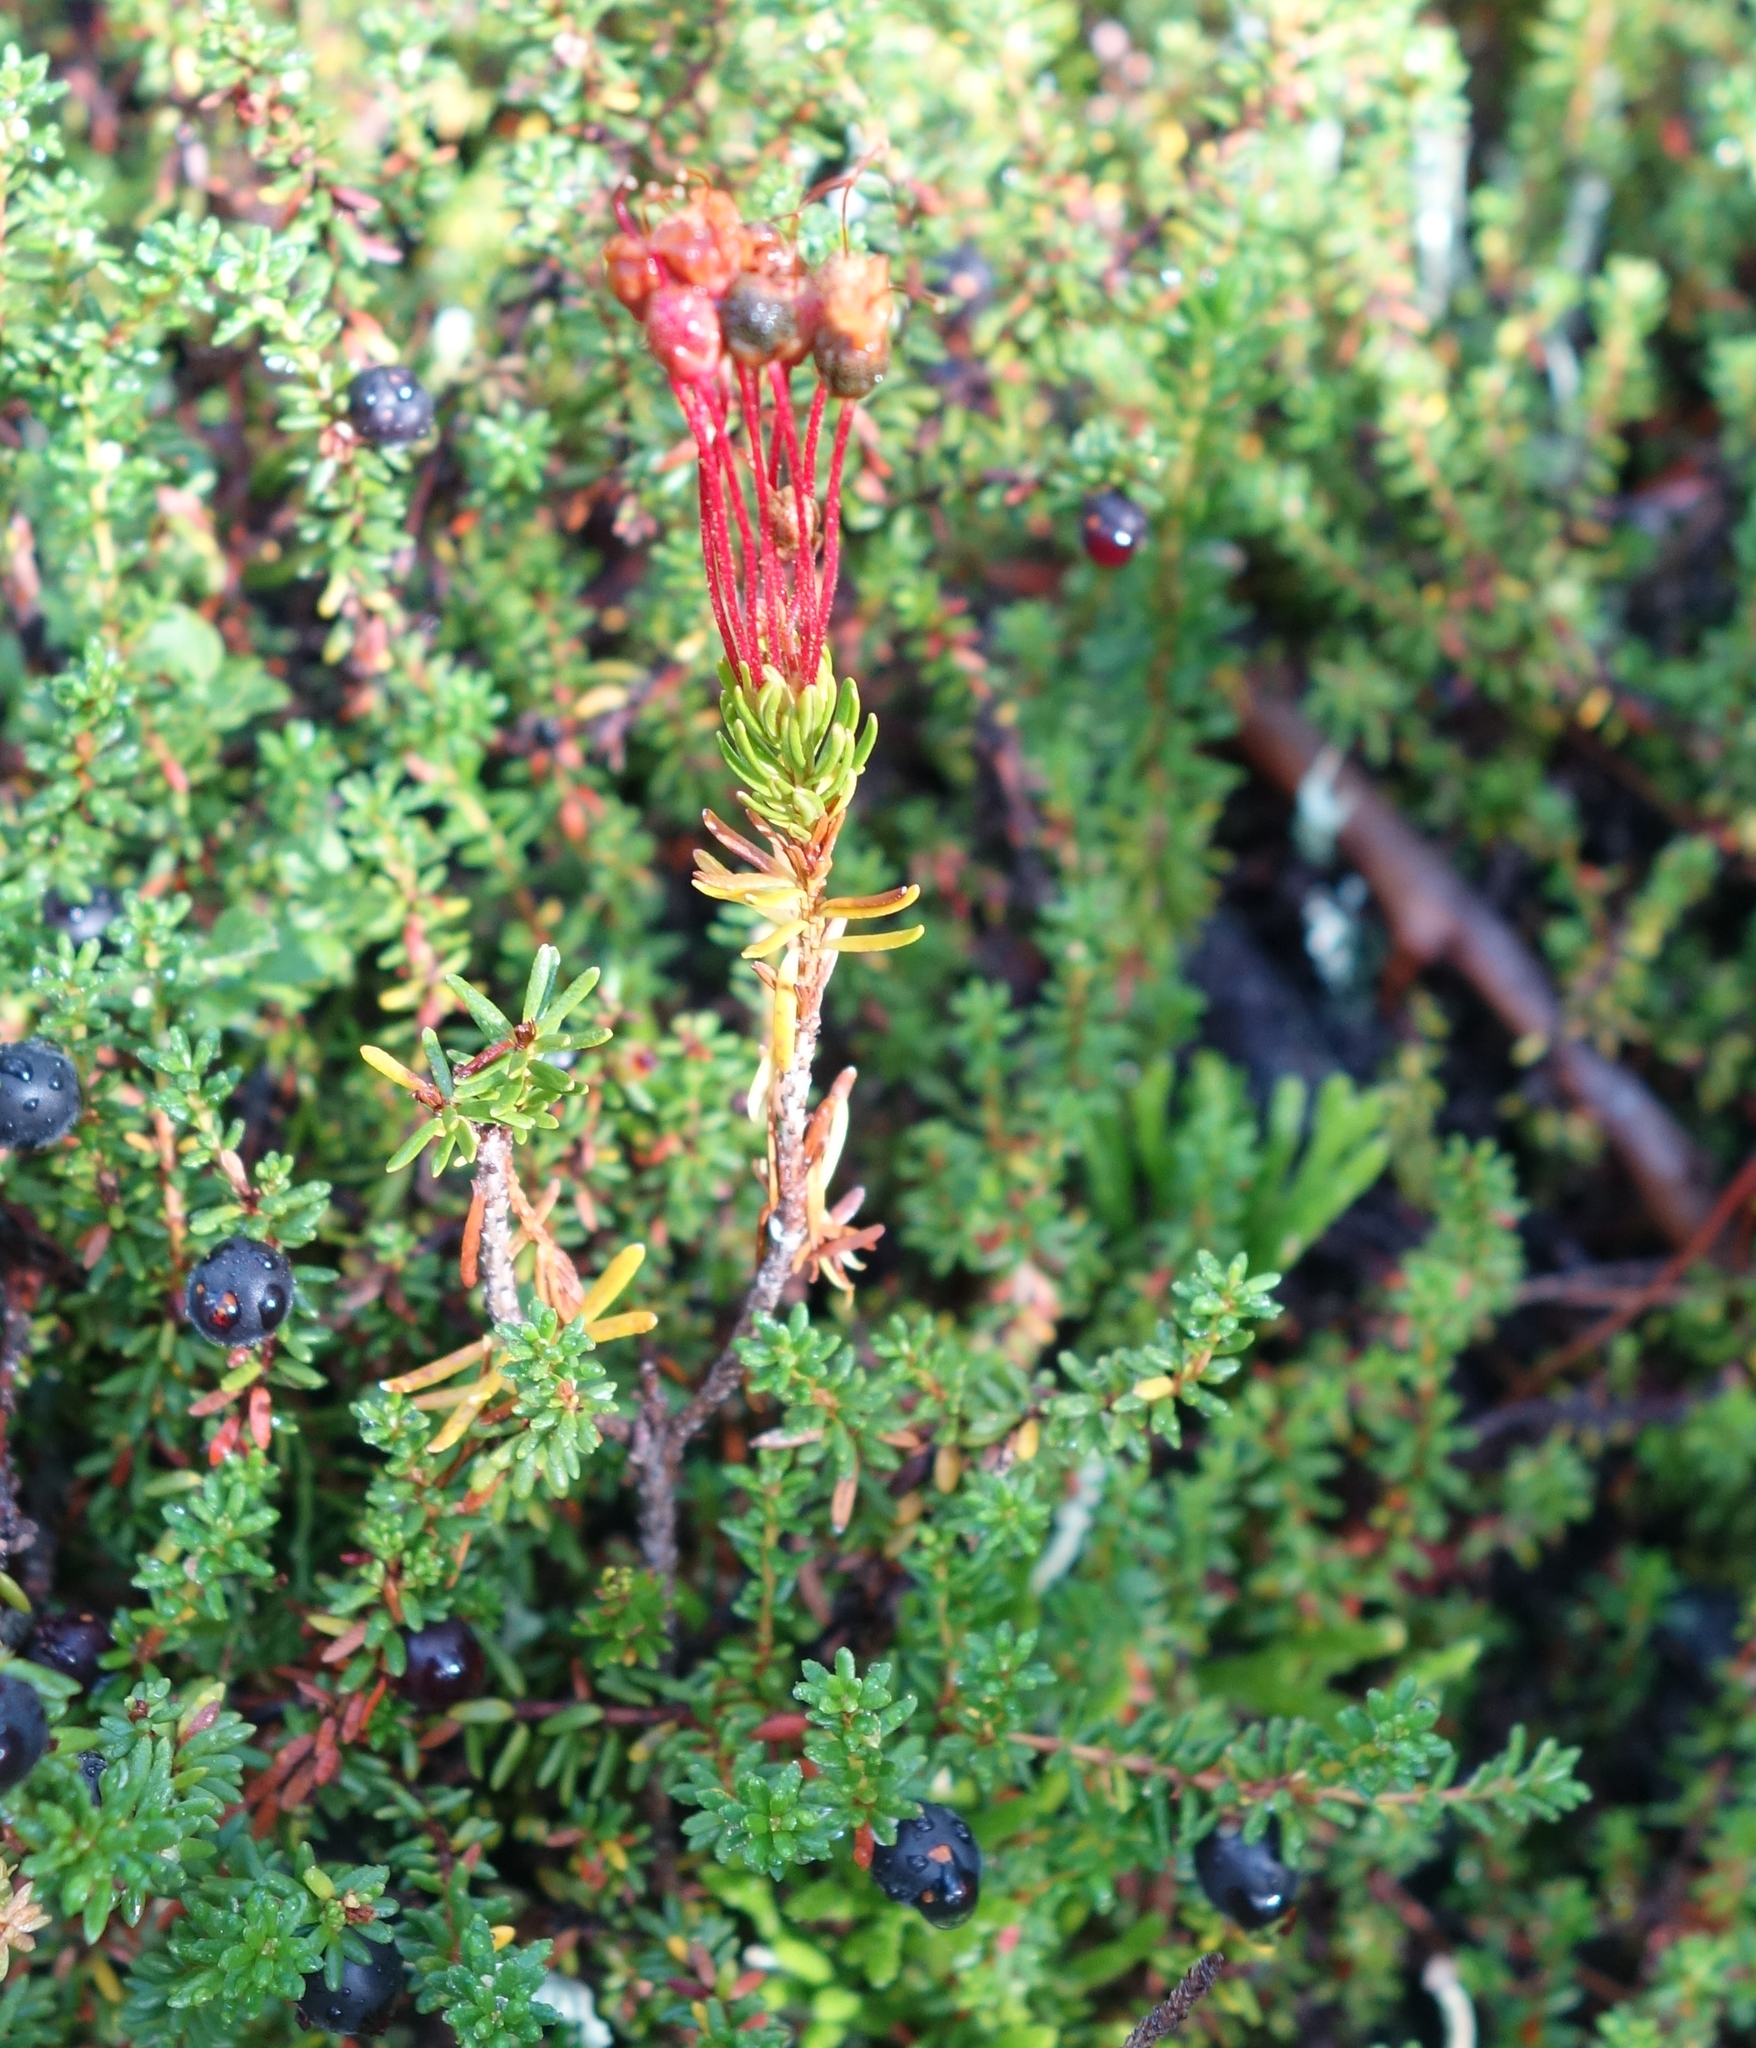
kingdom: Plantae
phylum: Tracheophyta
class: Magnoliopsida
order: Ericales
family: Ericaceae
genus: Phyllodoce
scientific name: Phyllodoce empetriformis
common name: Pink mountain heather
